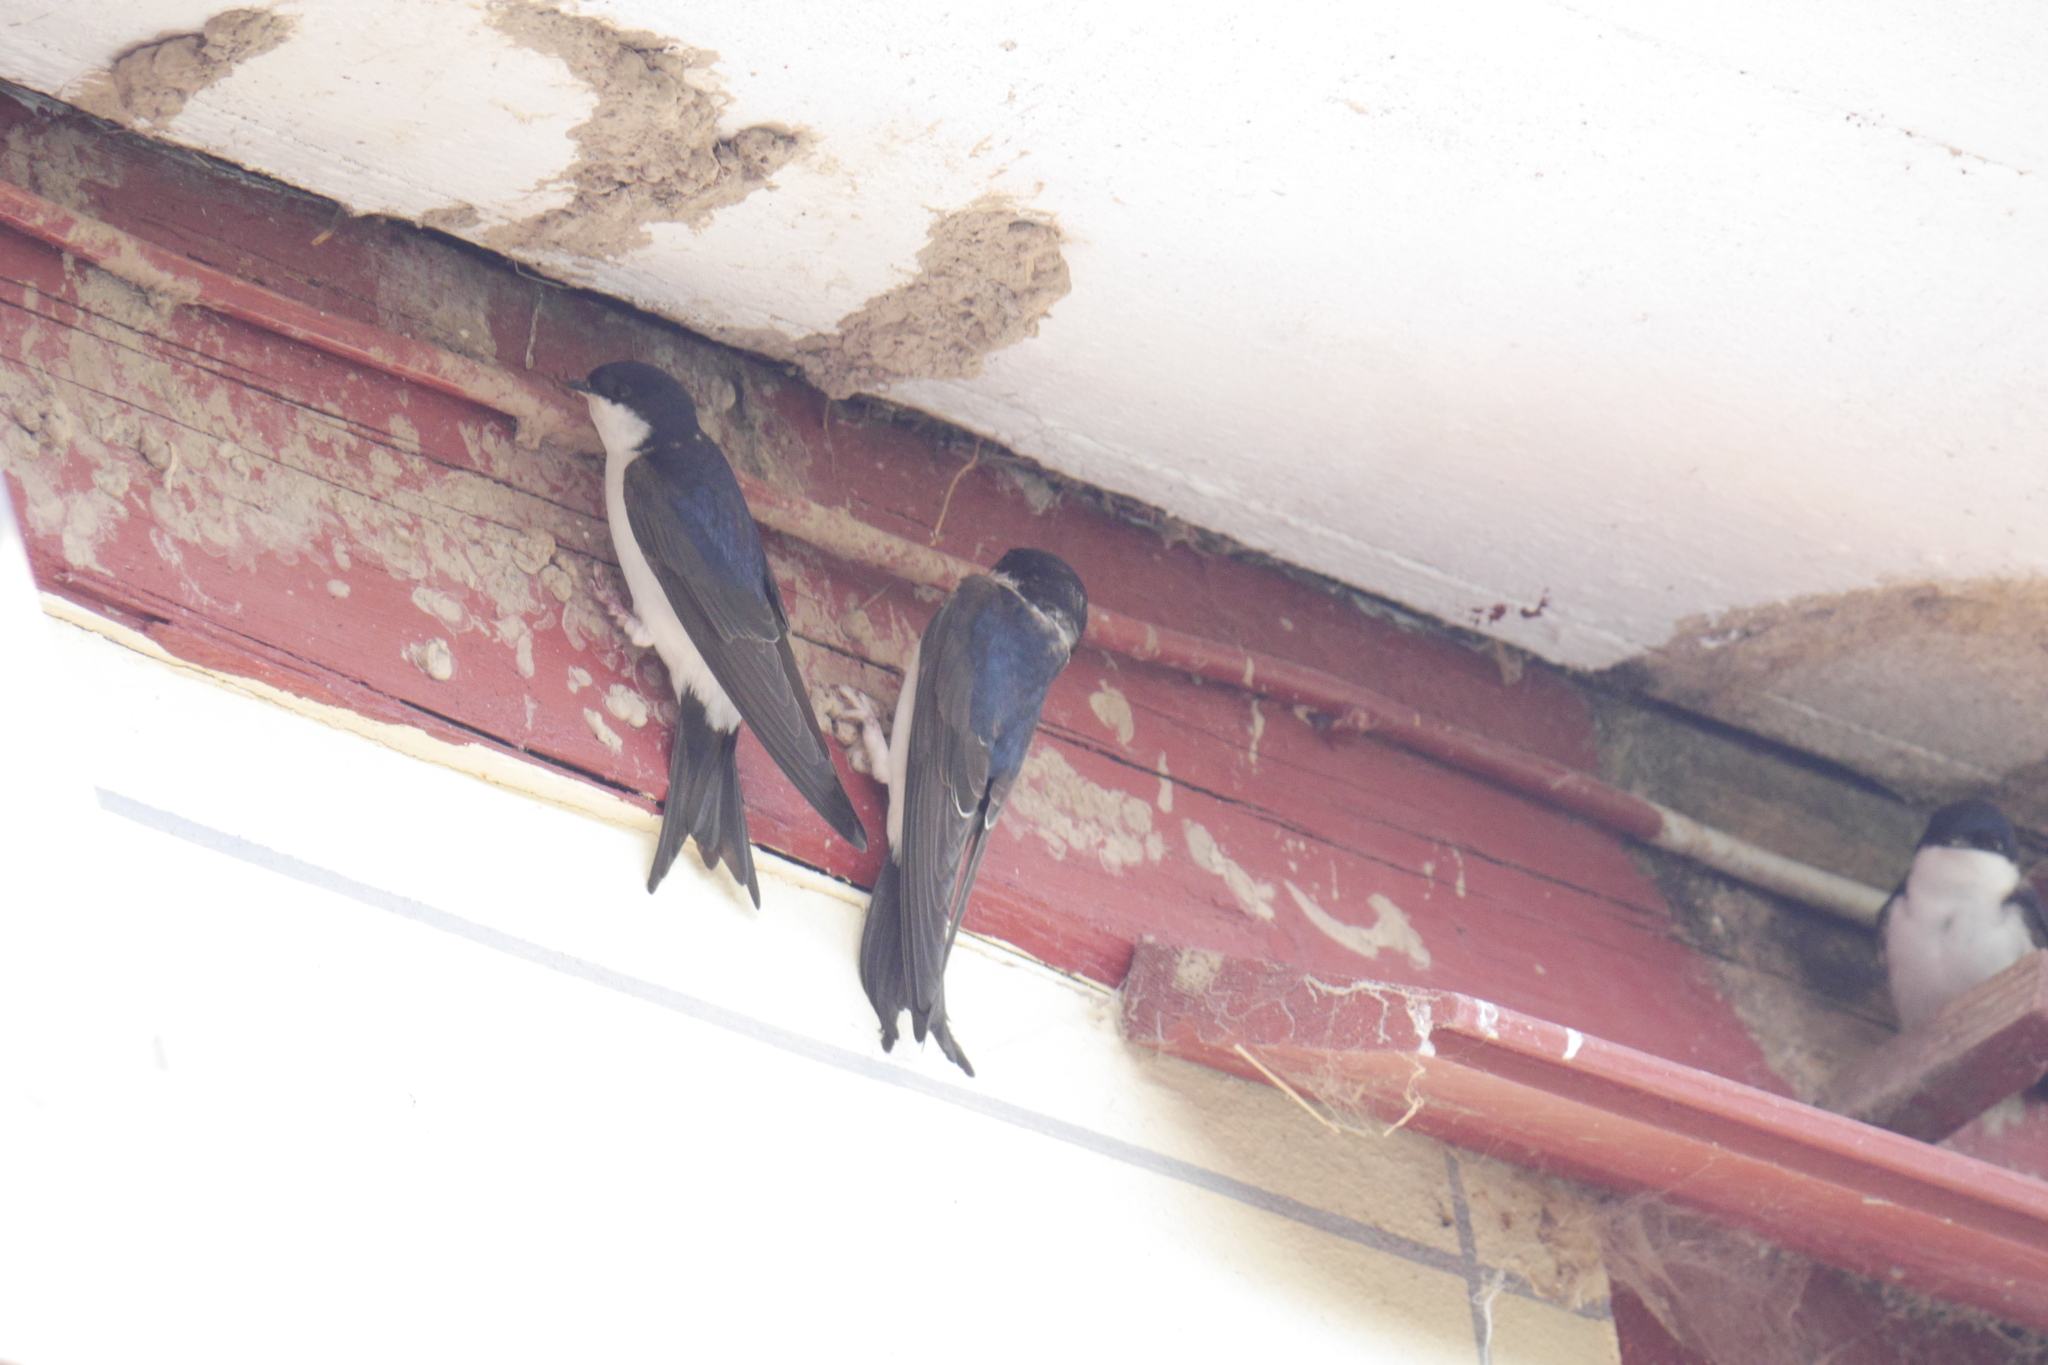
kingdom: Animalia
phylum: Chordata
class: Aves
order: Passeriformes
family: Hirundinidae
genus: Delichon
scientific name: Delichon urbicum
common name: Common house martin
